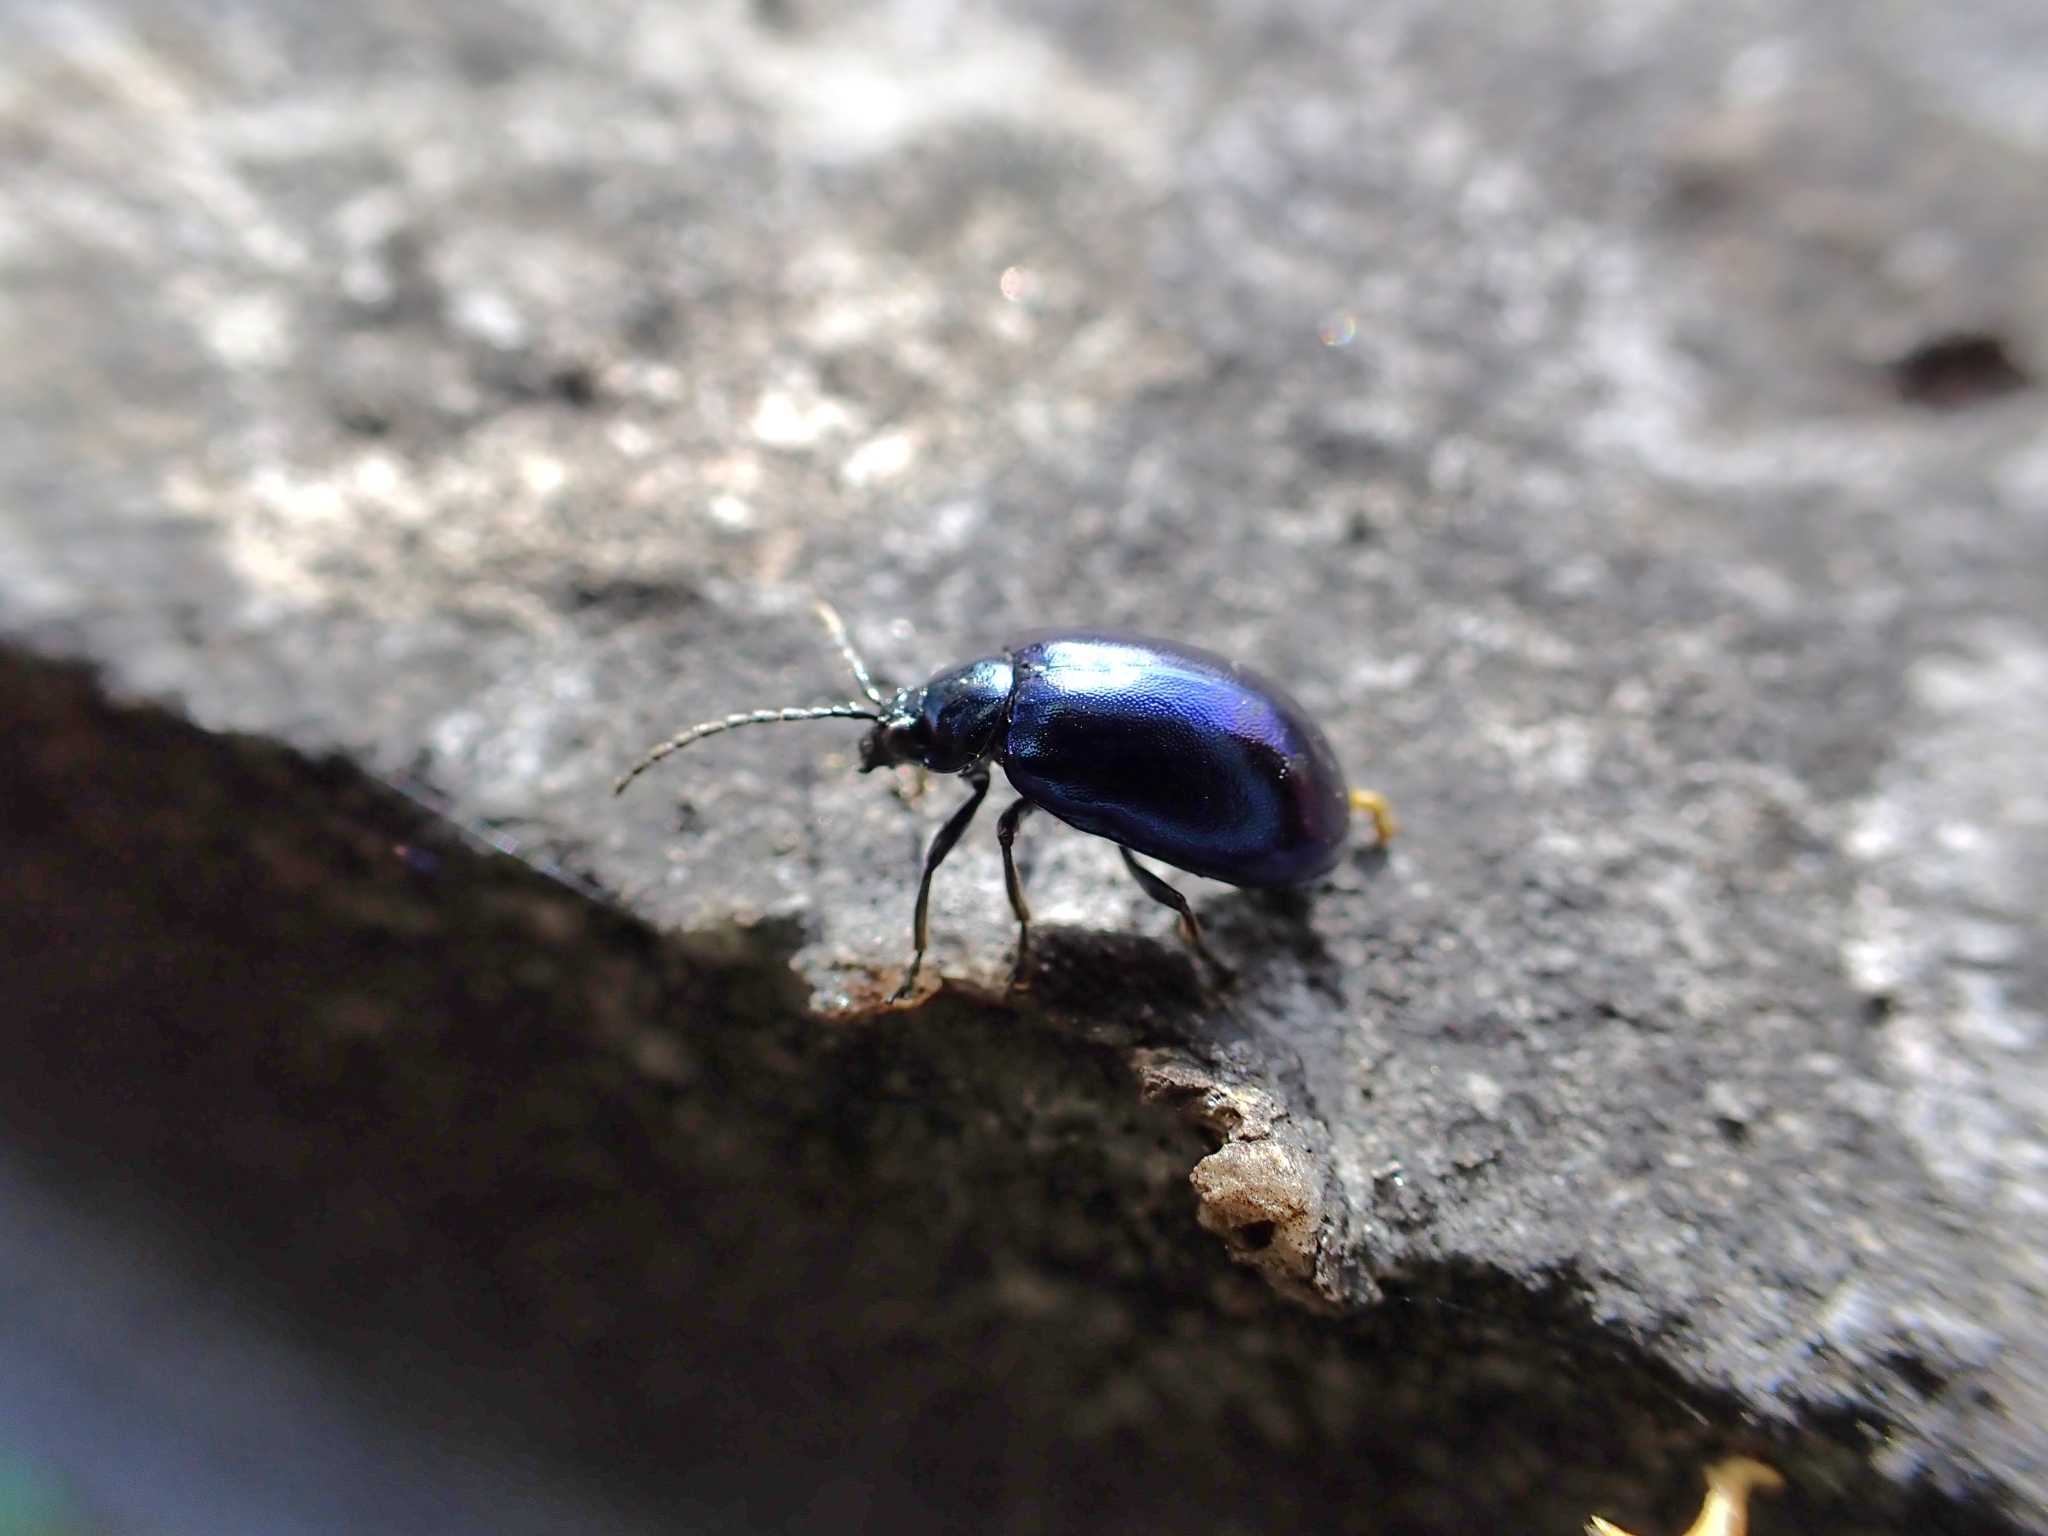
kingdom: Animalia
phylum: Arthropoda
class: Insecta
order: Coleoptera
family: Chrysomelidae
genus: Agelastica
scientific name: Agelastica alni
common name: Alder leaf beetle
